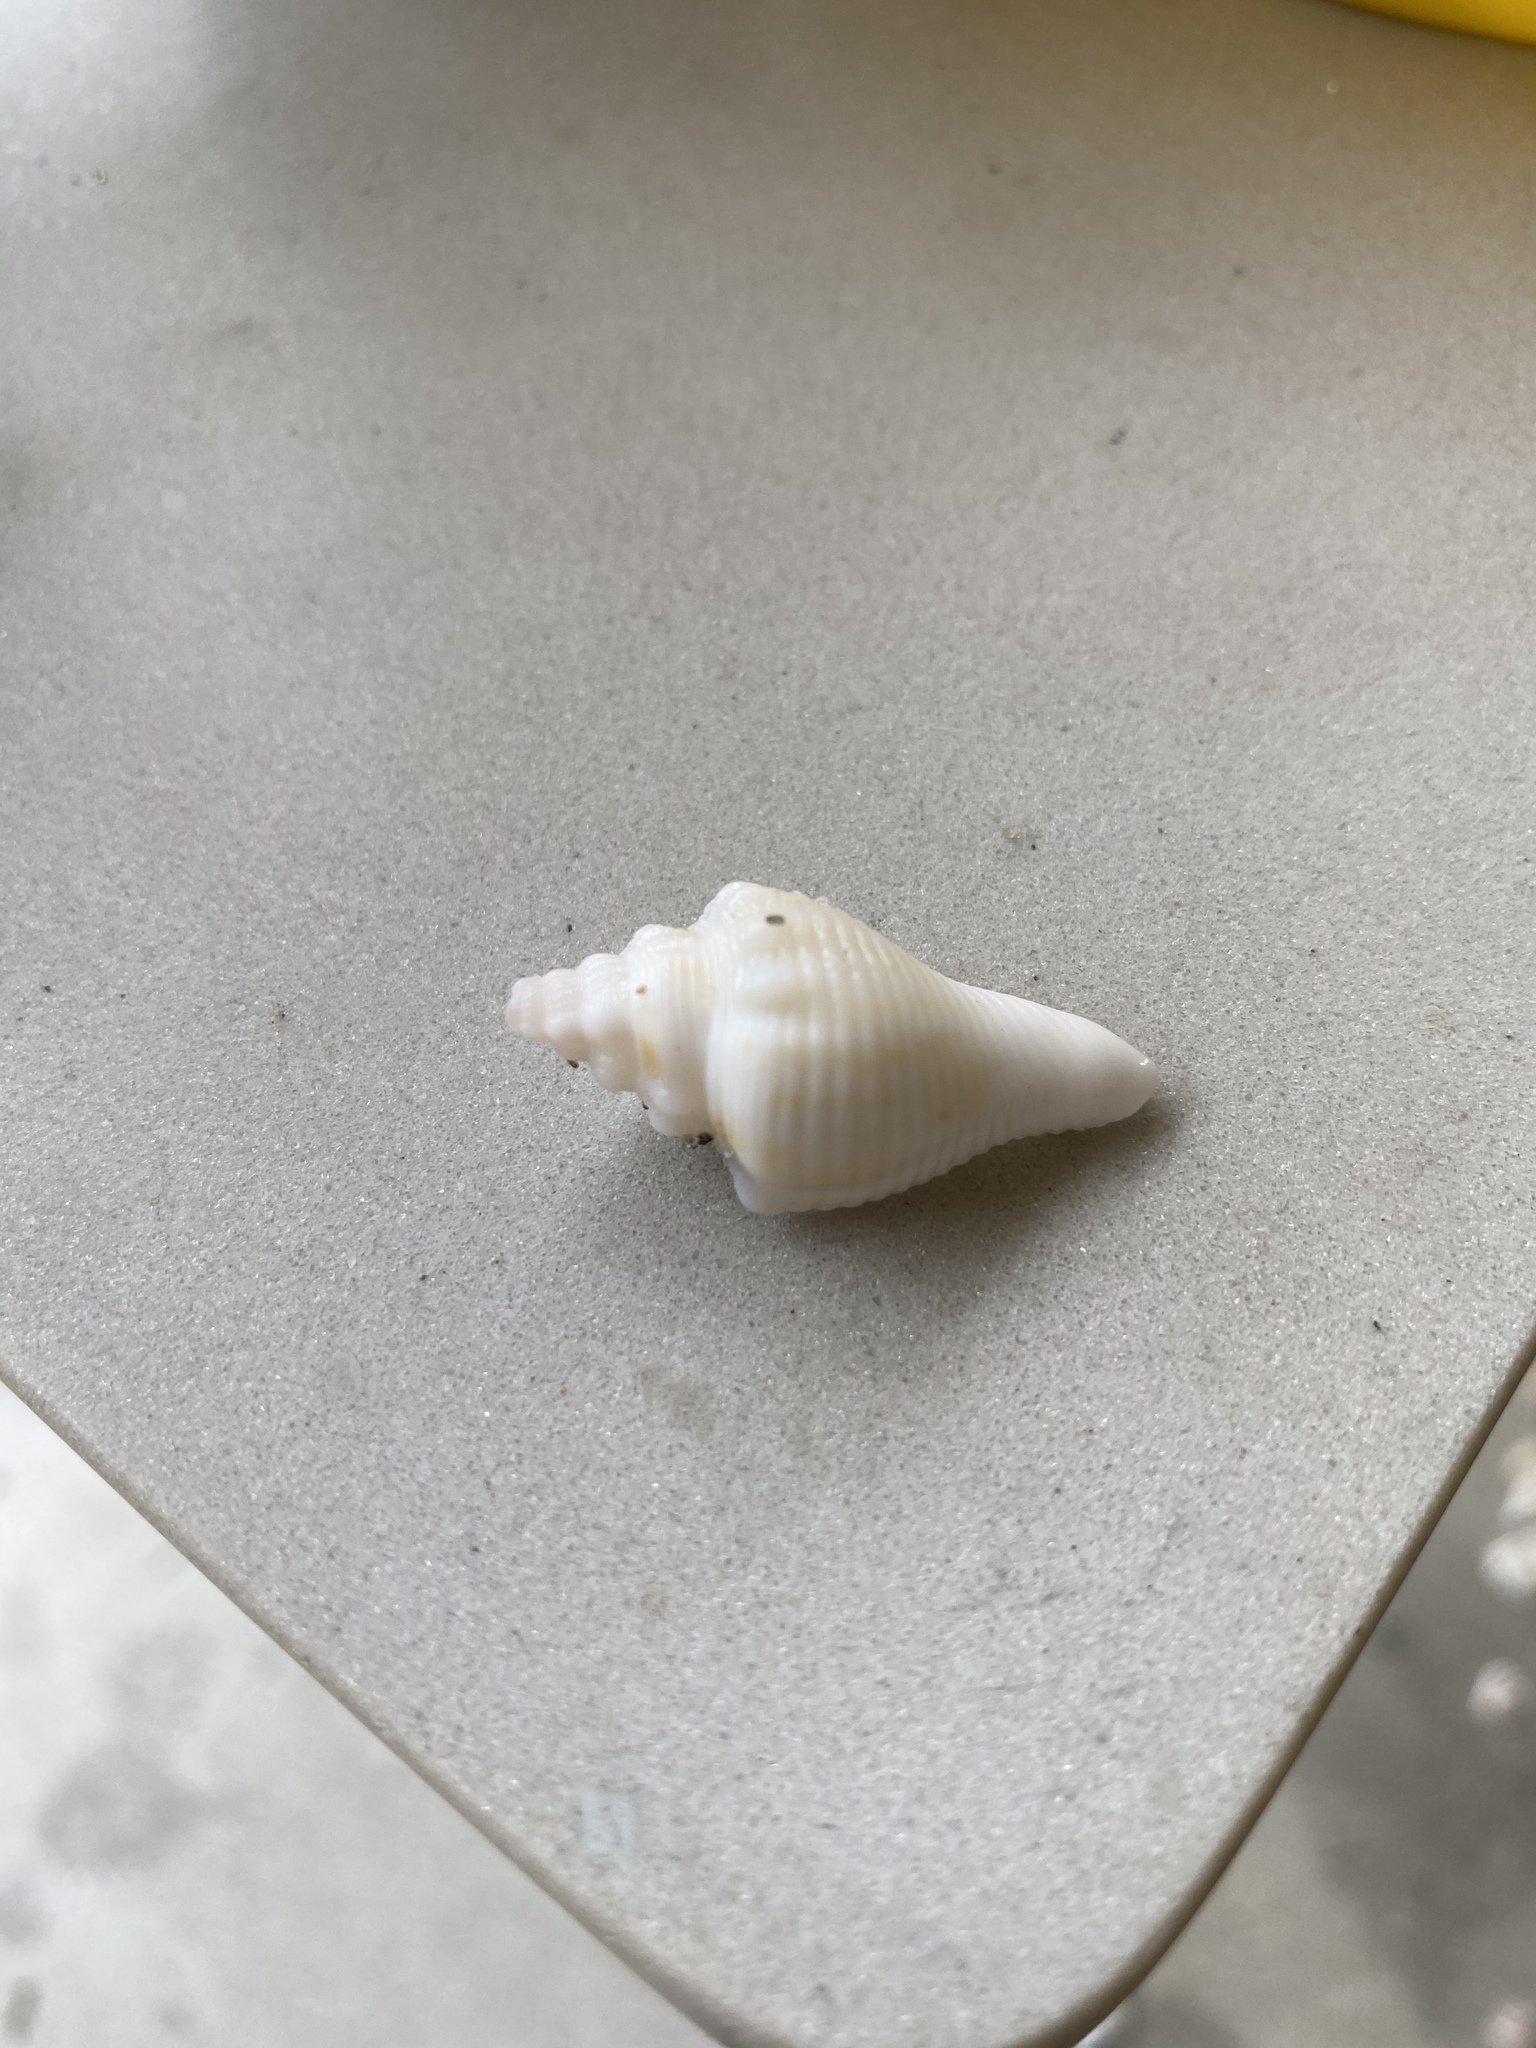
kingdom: Animalia
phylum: Mollusca
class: Gastropoda
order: Littorinimorpha
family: Strombidae
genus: Strombus
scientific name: Strombus alatus
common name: Florida fighting conch
